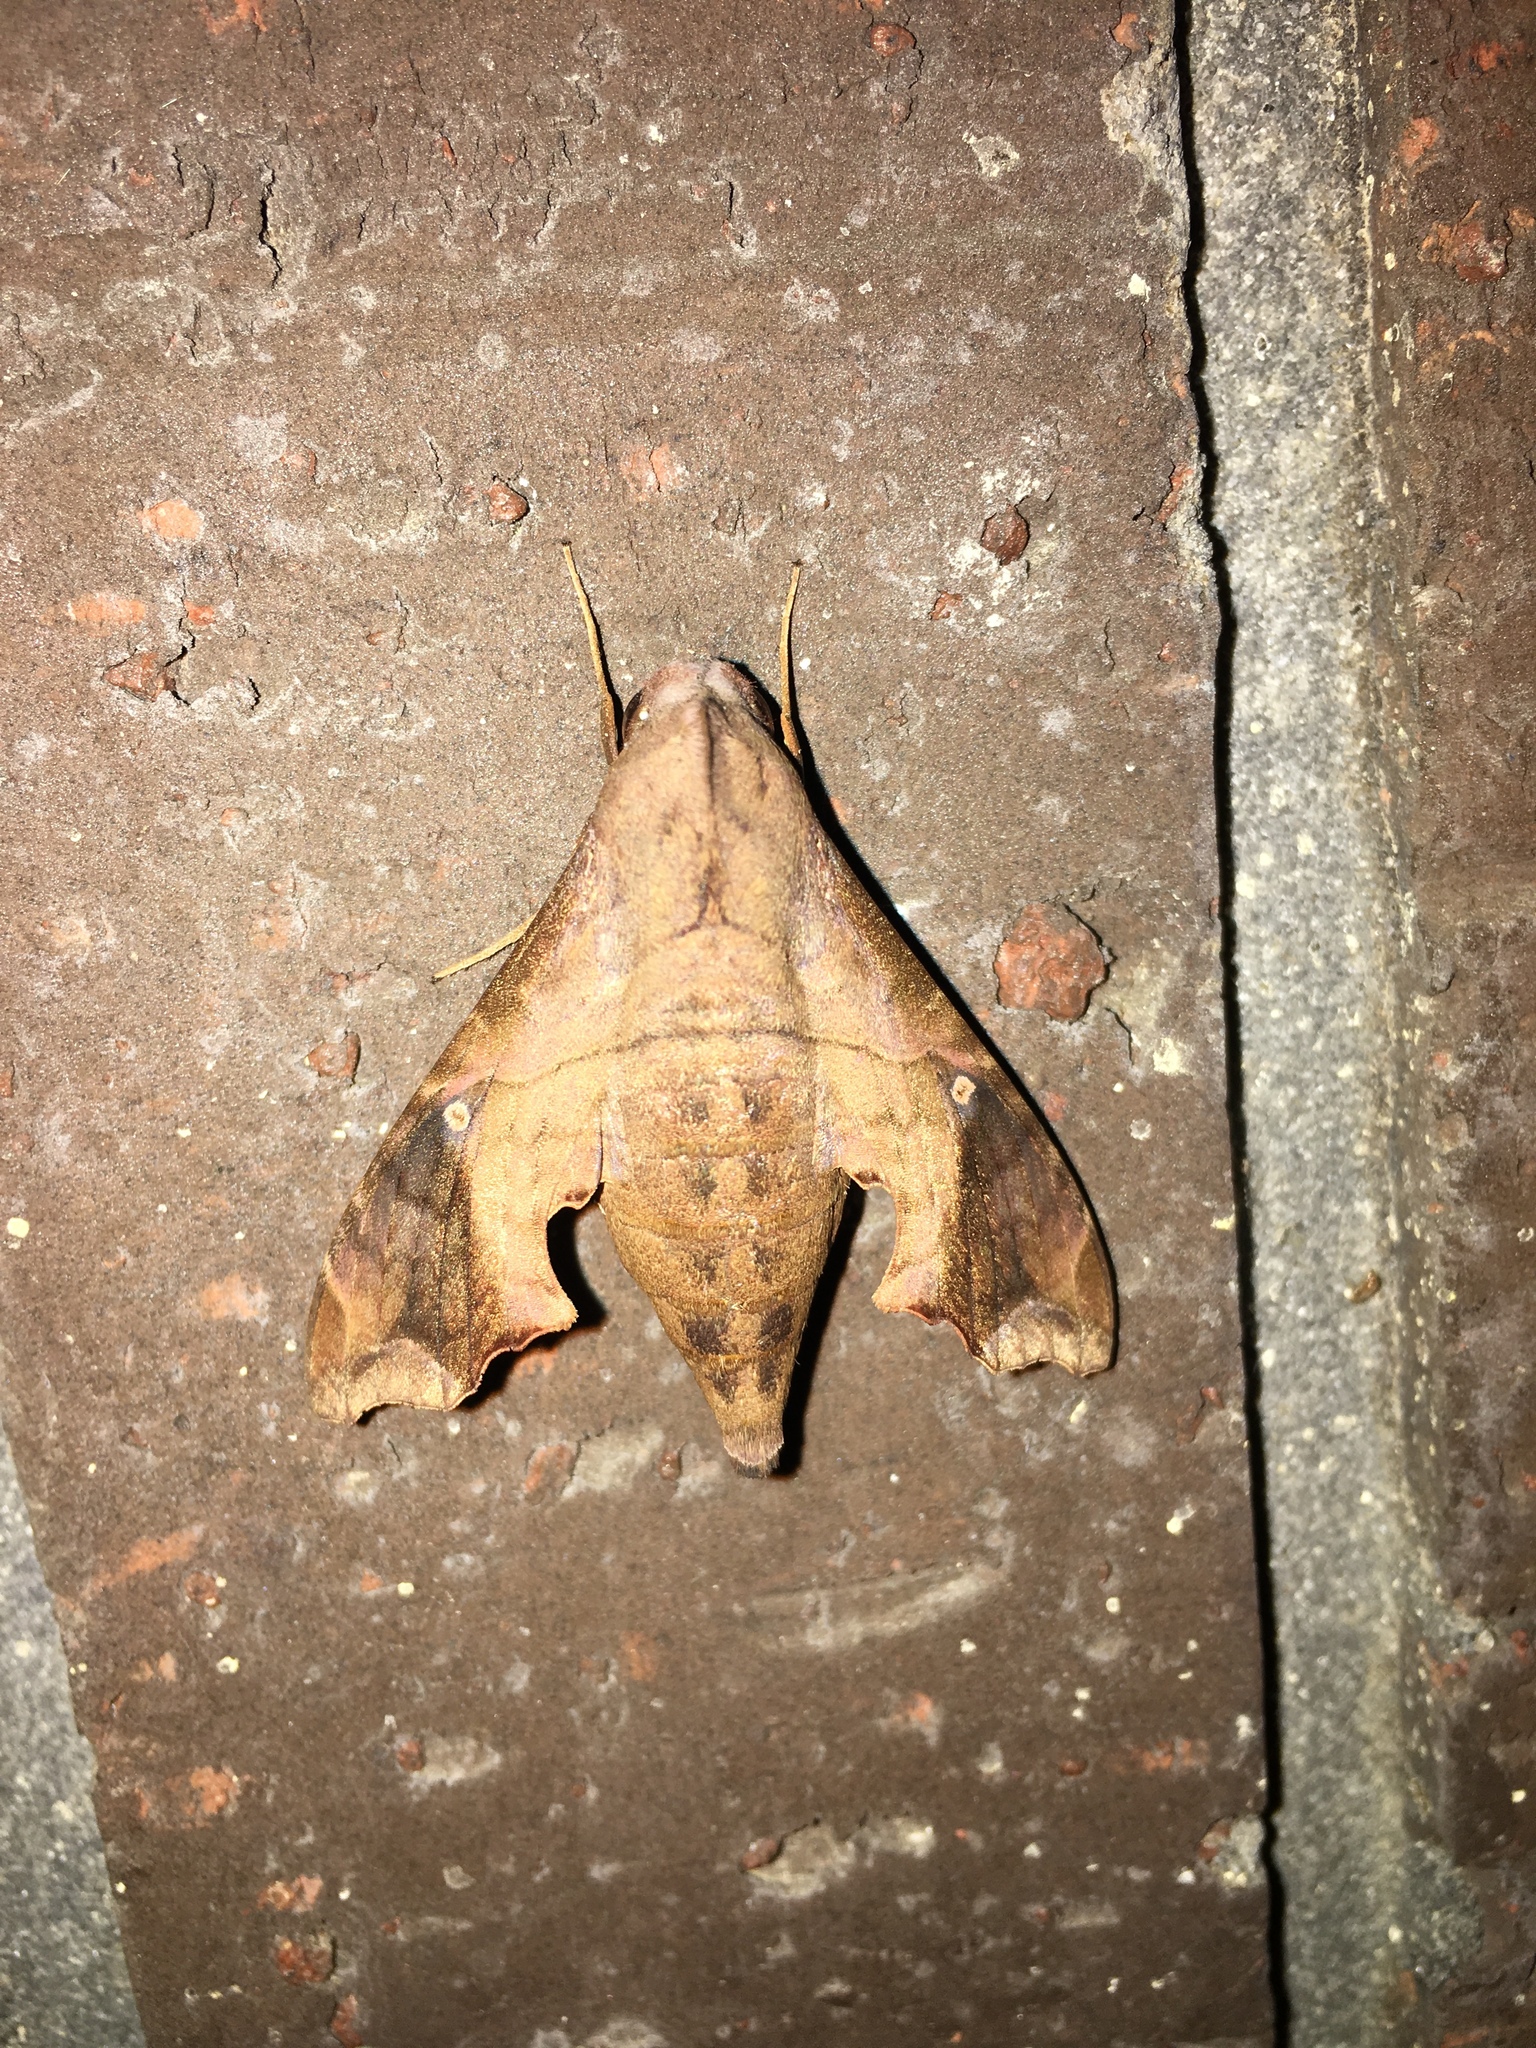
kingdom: Animalia
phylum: Arthropoda
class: Insecta
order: Lepidoptera
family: Sphingidae
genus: Enyo
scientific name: Enyo lugubris
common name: Mournful sphinx
